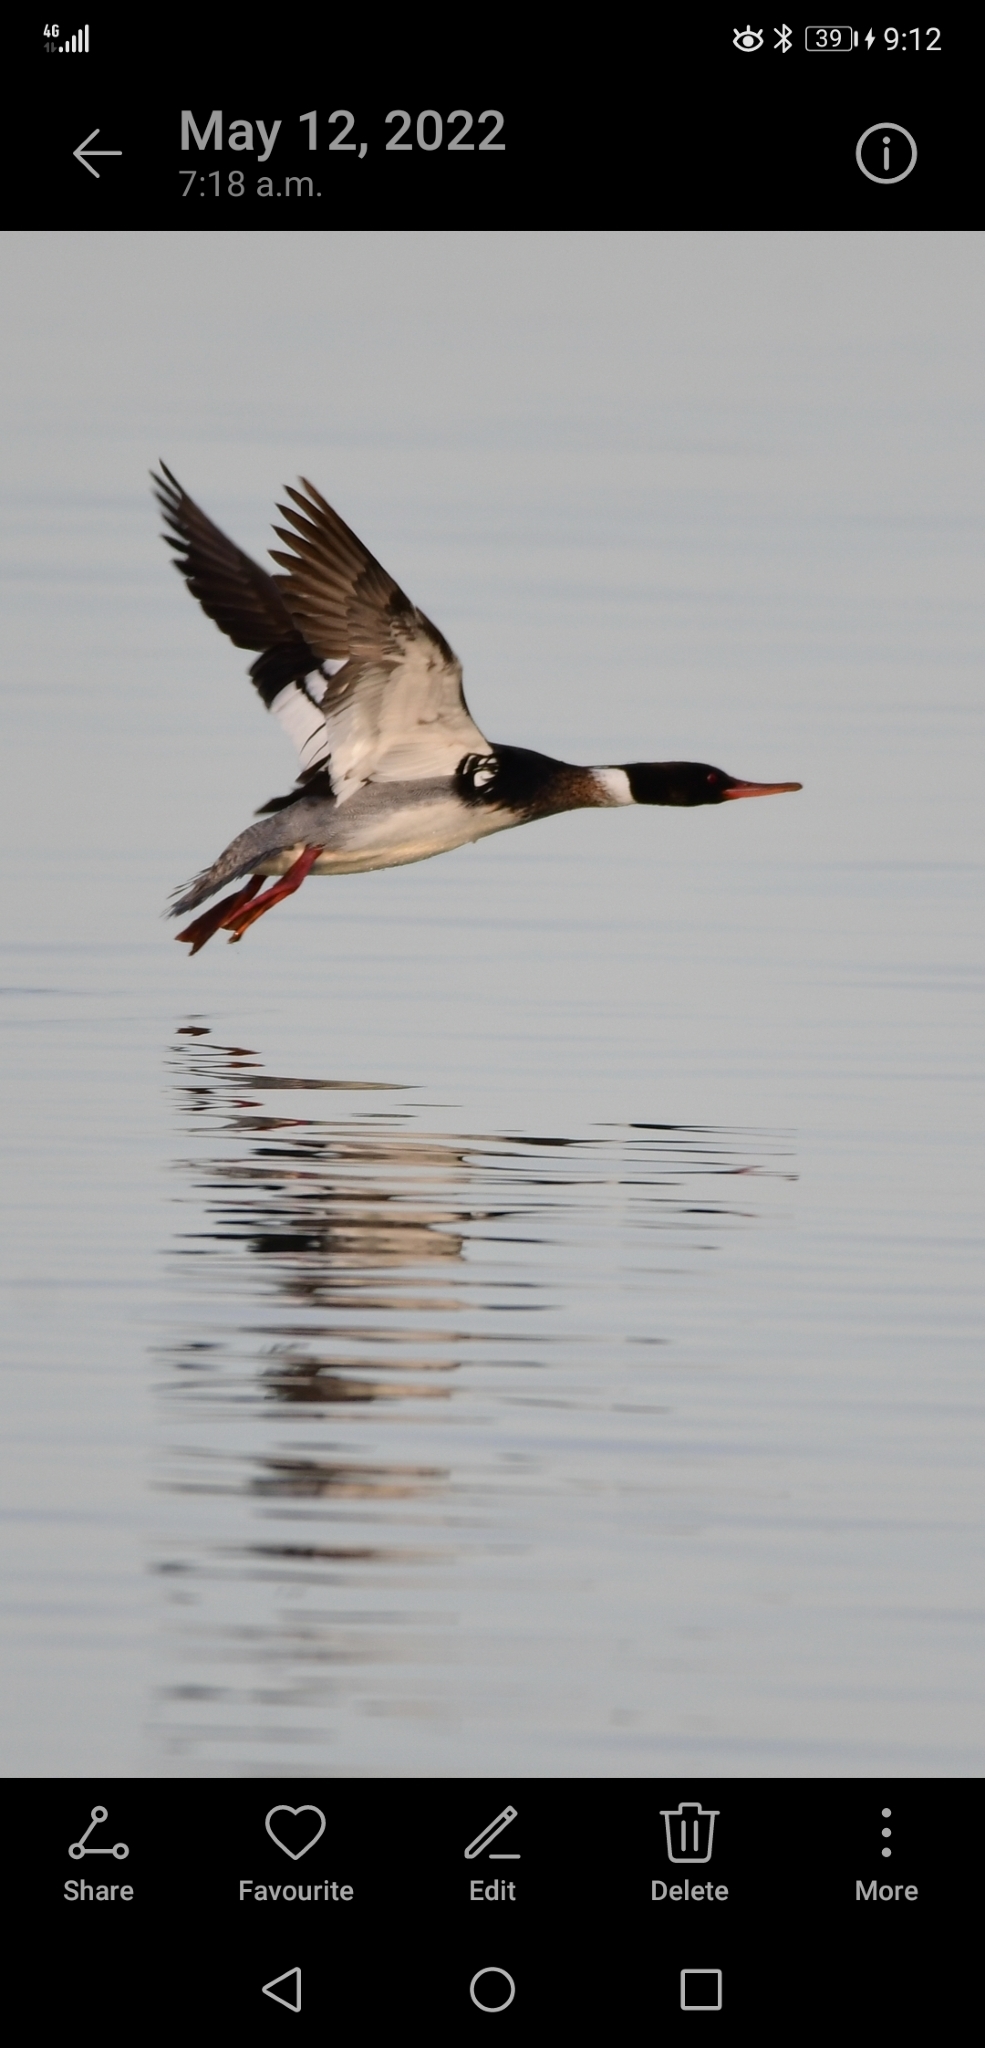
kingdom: Animalia
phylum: Chordata
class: Aves
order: Anseriformes
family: Anatidae
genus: Mergus
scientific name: Mergus serrator
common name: Red-breasted merganser
